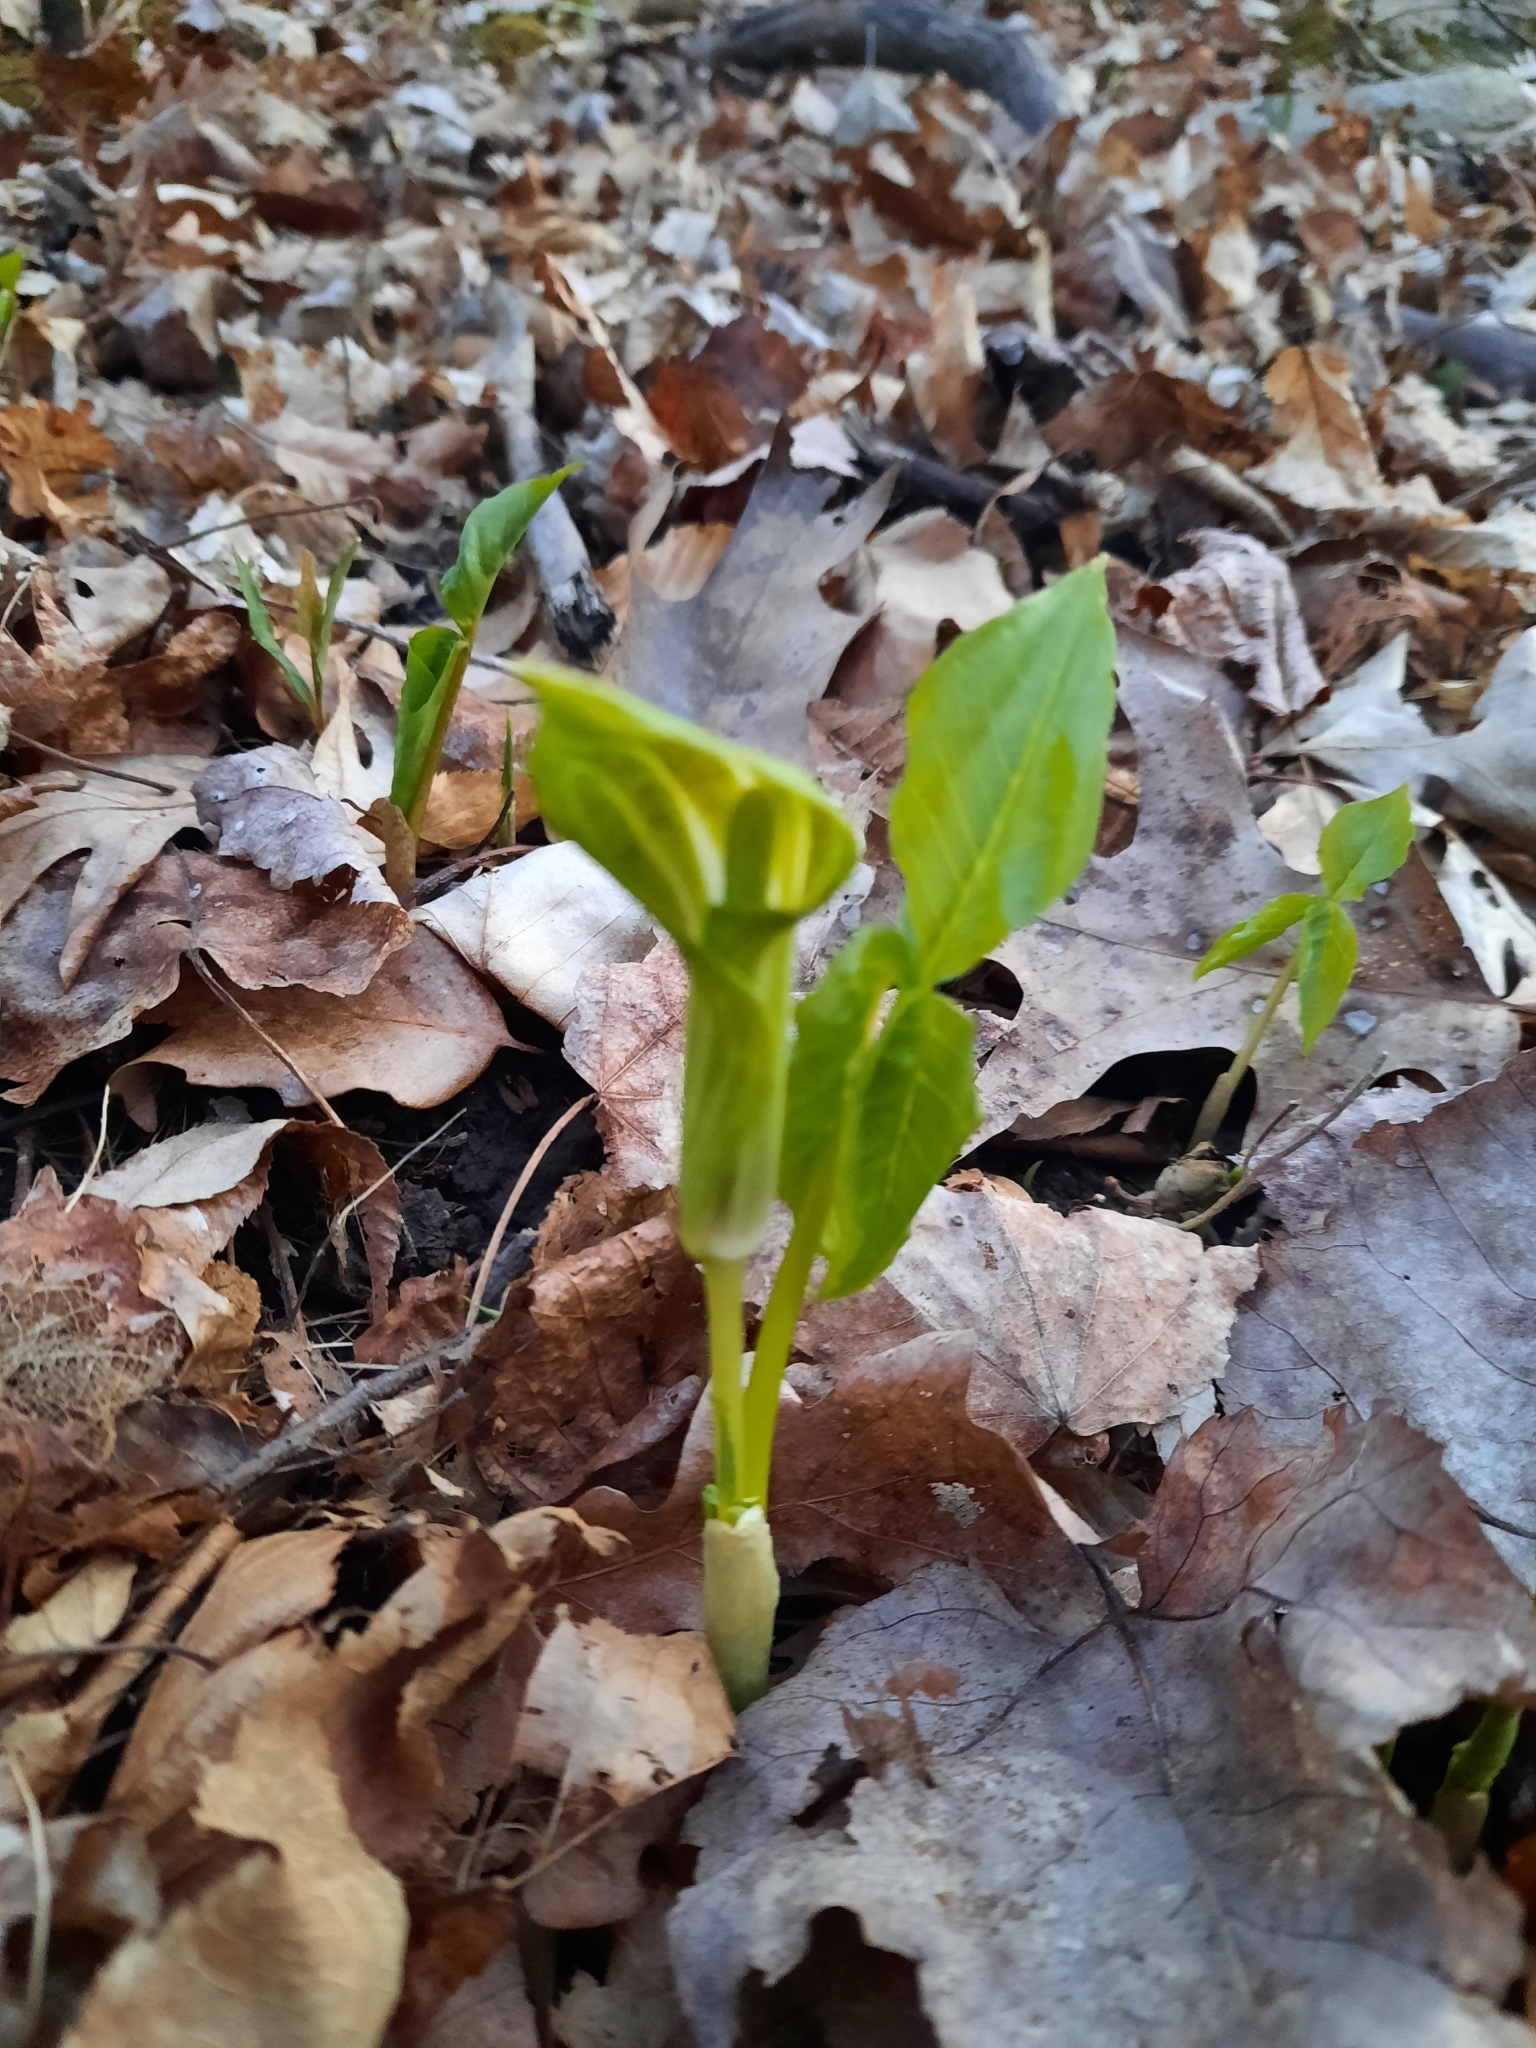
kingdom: Plantae
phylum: Tracheophyta
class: Liliopsida
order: Alismatales
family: Araceae
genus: Arisaema
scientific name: Arisaema triphyllum
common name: Jack-in-the-pulpit
